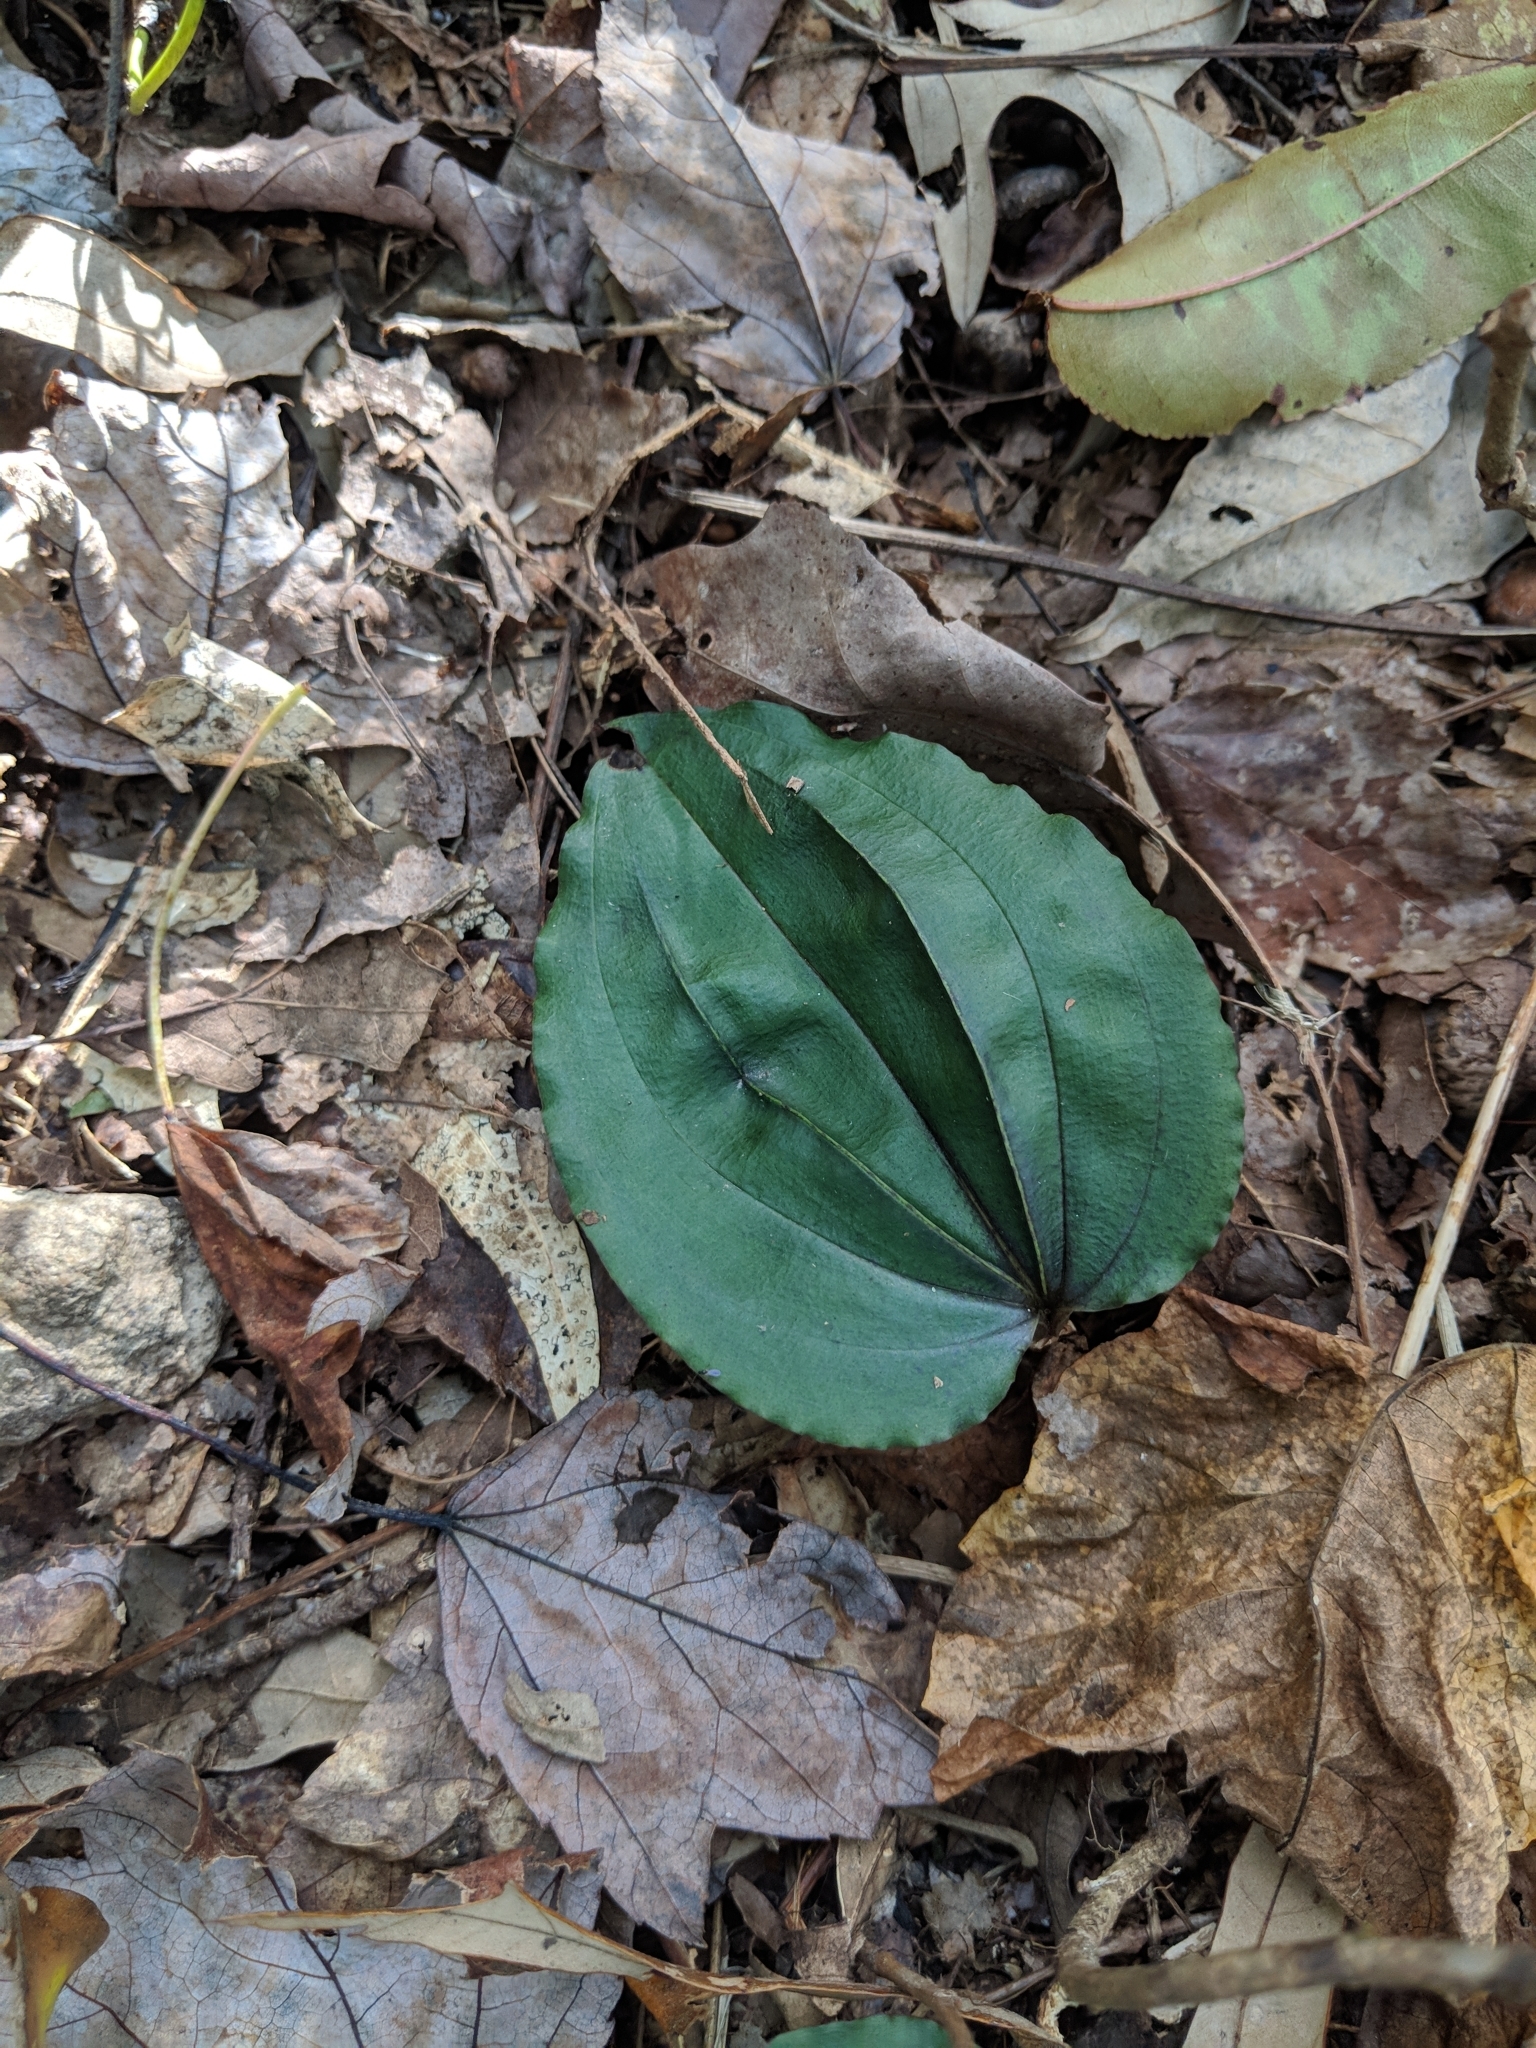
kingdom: Plantae
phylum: Tracheophyta
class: Liliopsida
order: Asparagales
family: Orchidaceae
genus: Tipularia
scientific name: Tipularia discolor
